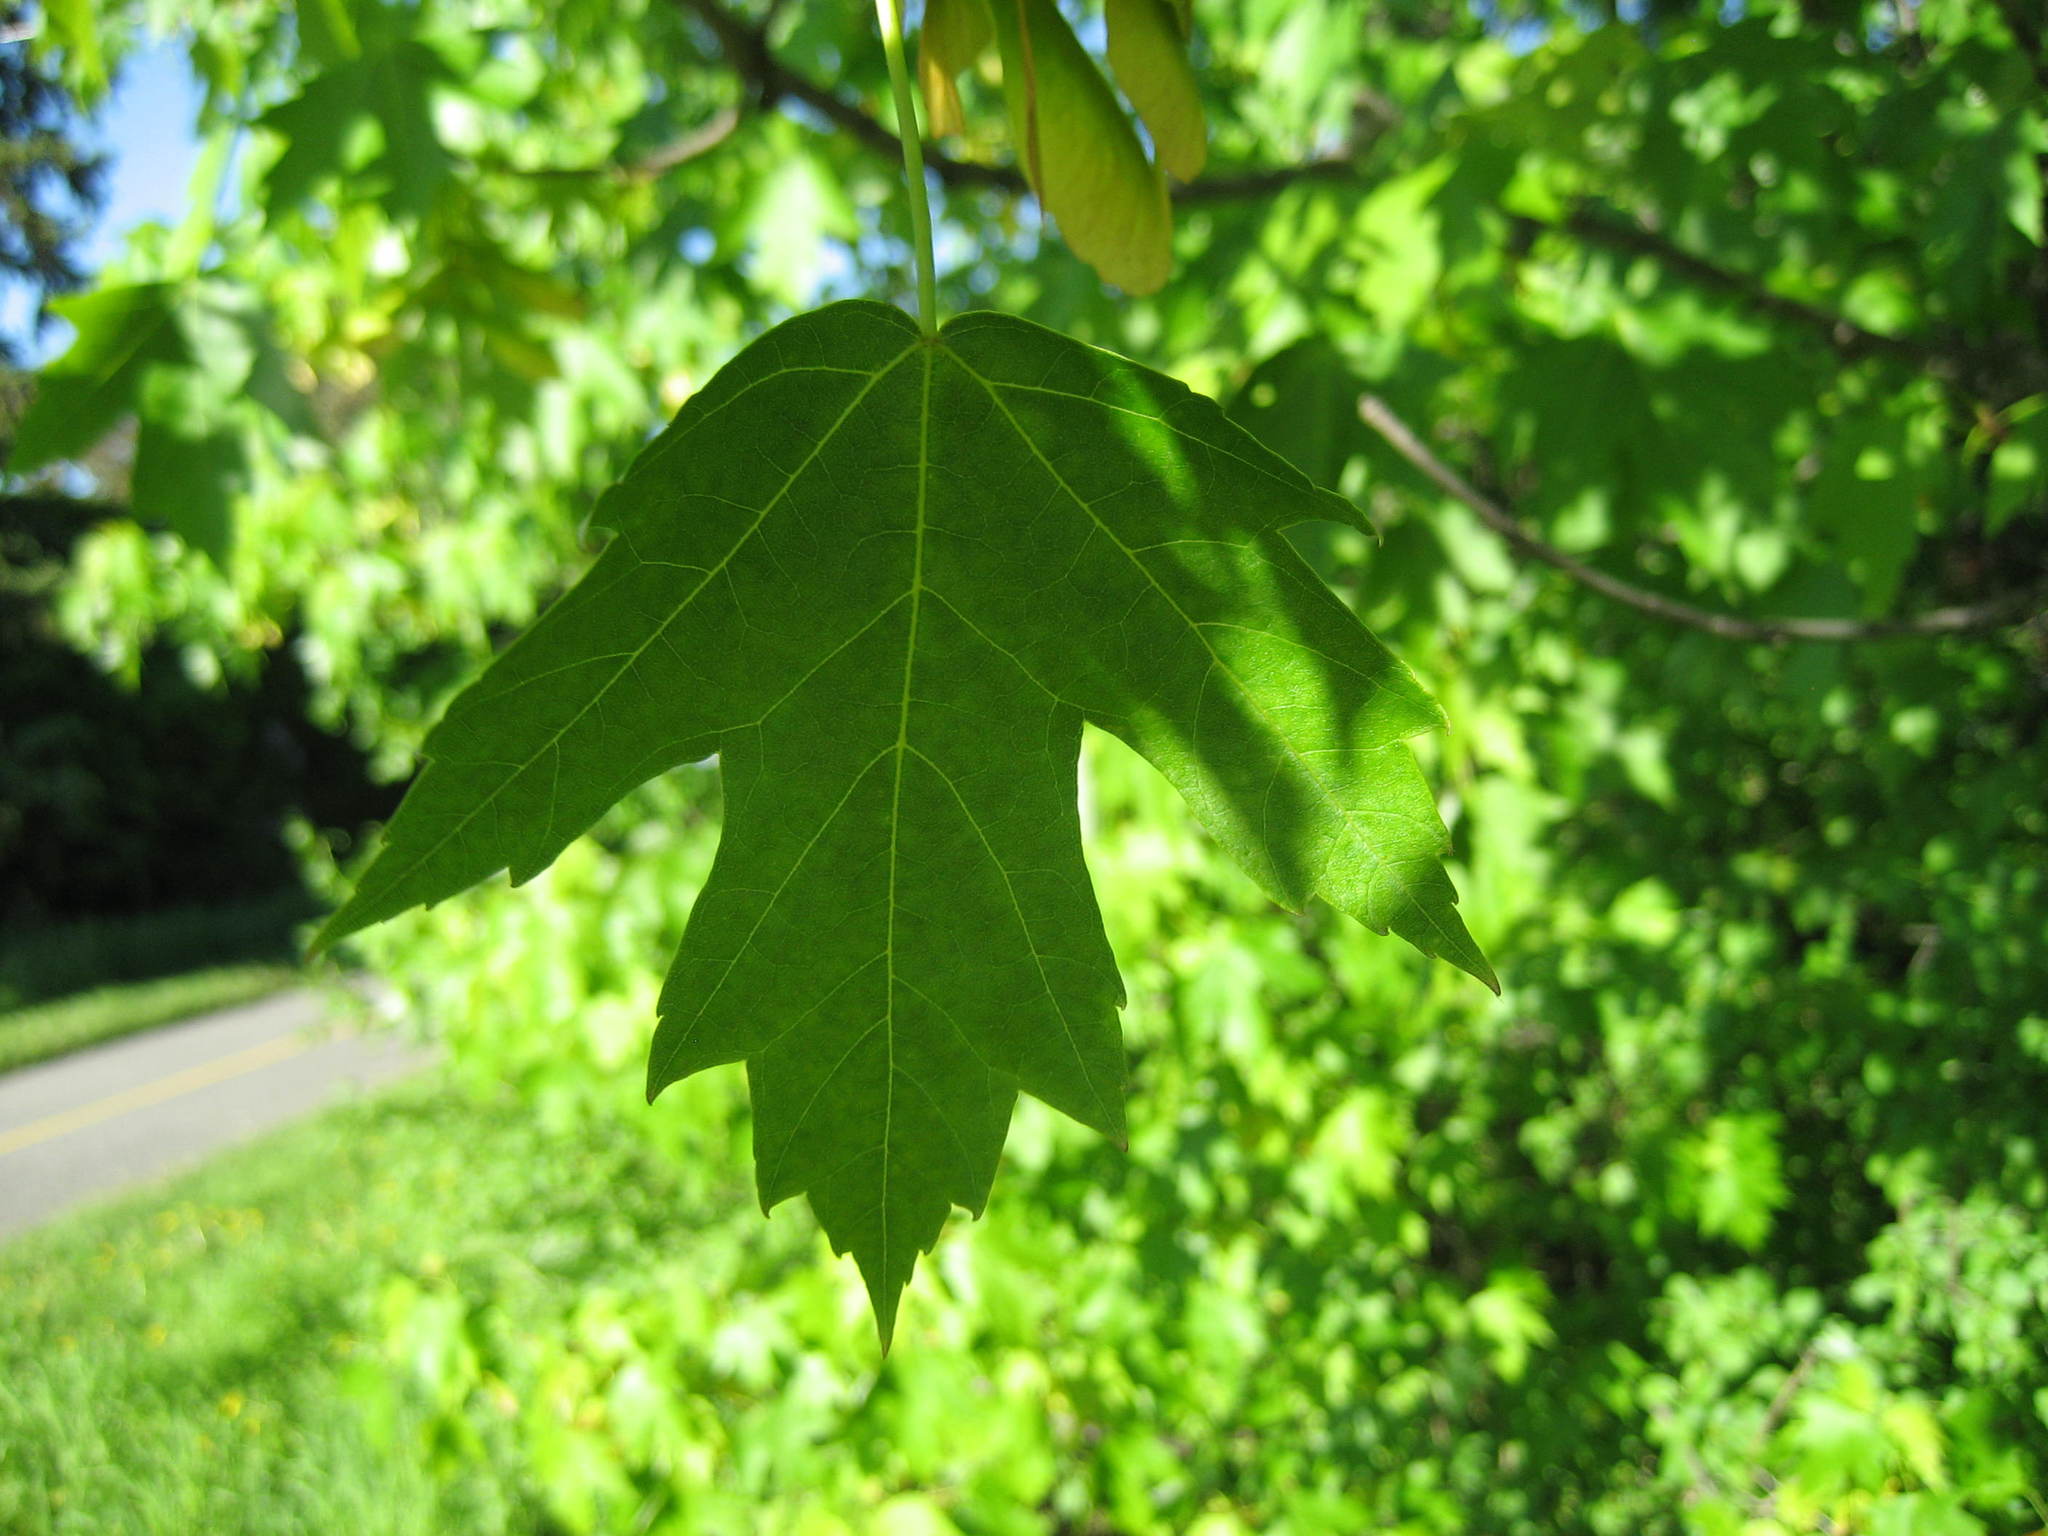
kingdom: Plantae
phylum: Tracheophyta
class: Magnoliopsida
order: Sapindales
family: Sapindaceae
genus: Acer
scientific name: Acer freemanii
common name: Freeman maple
